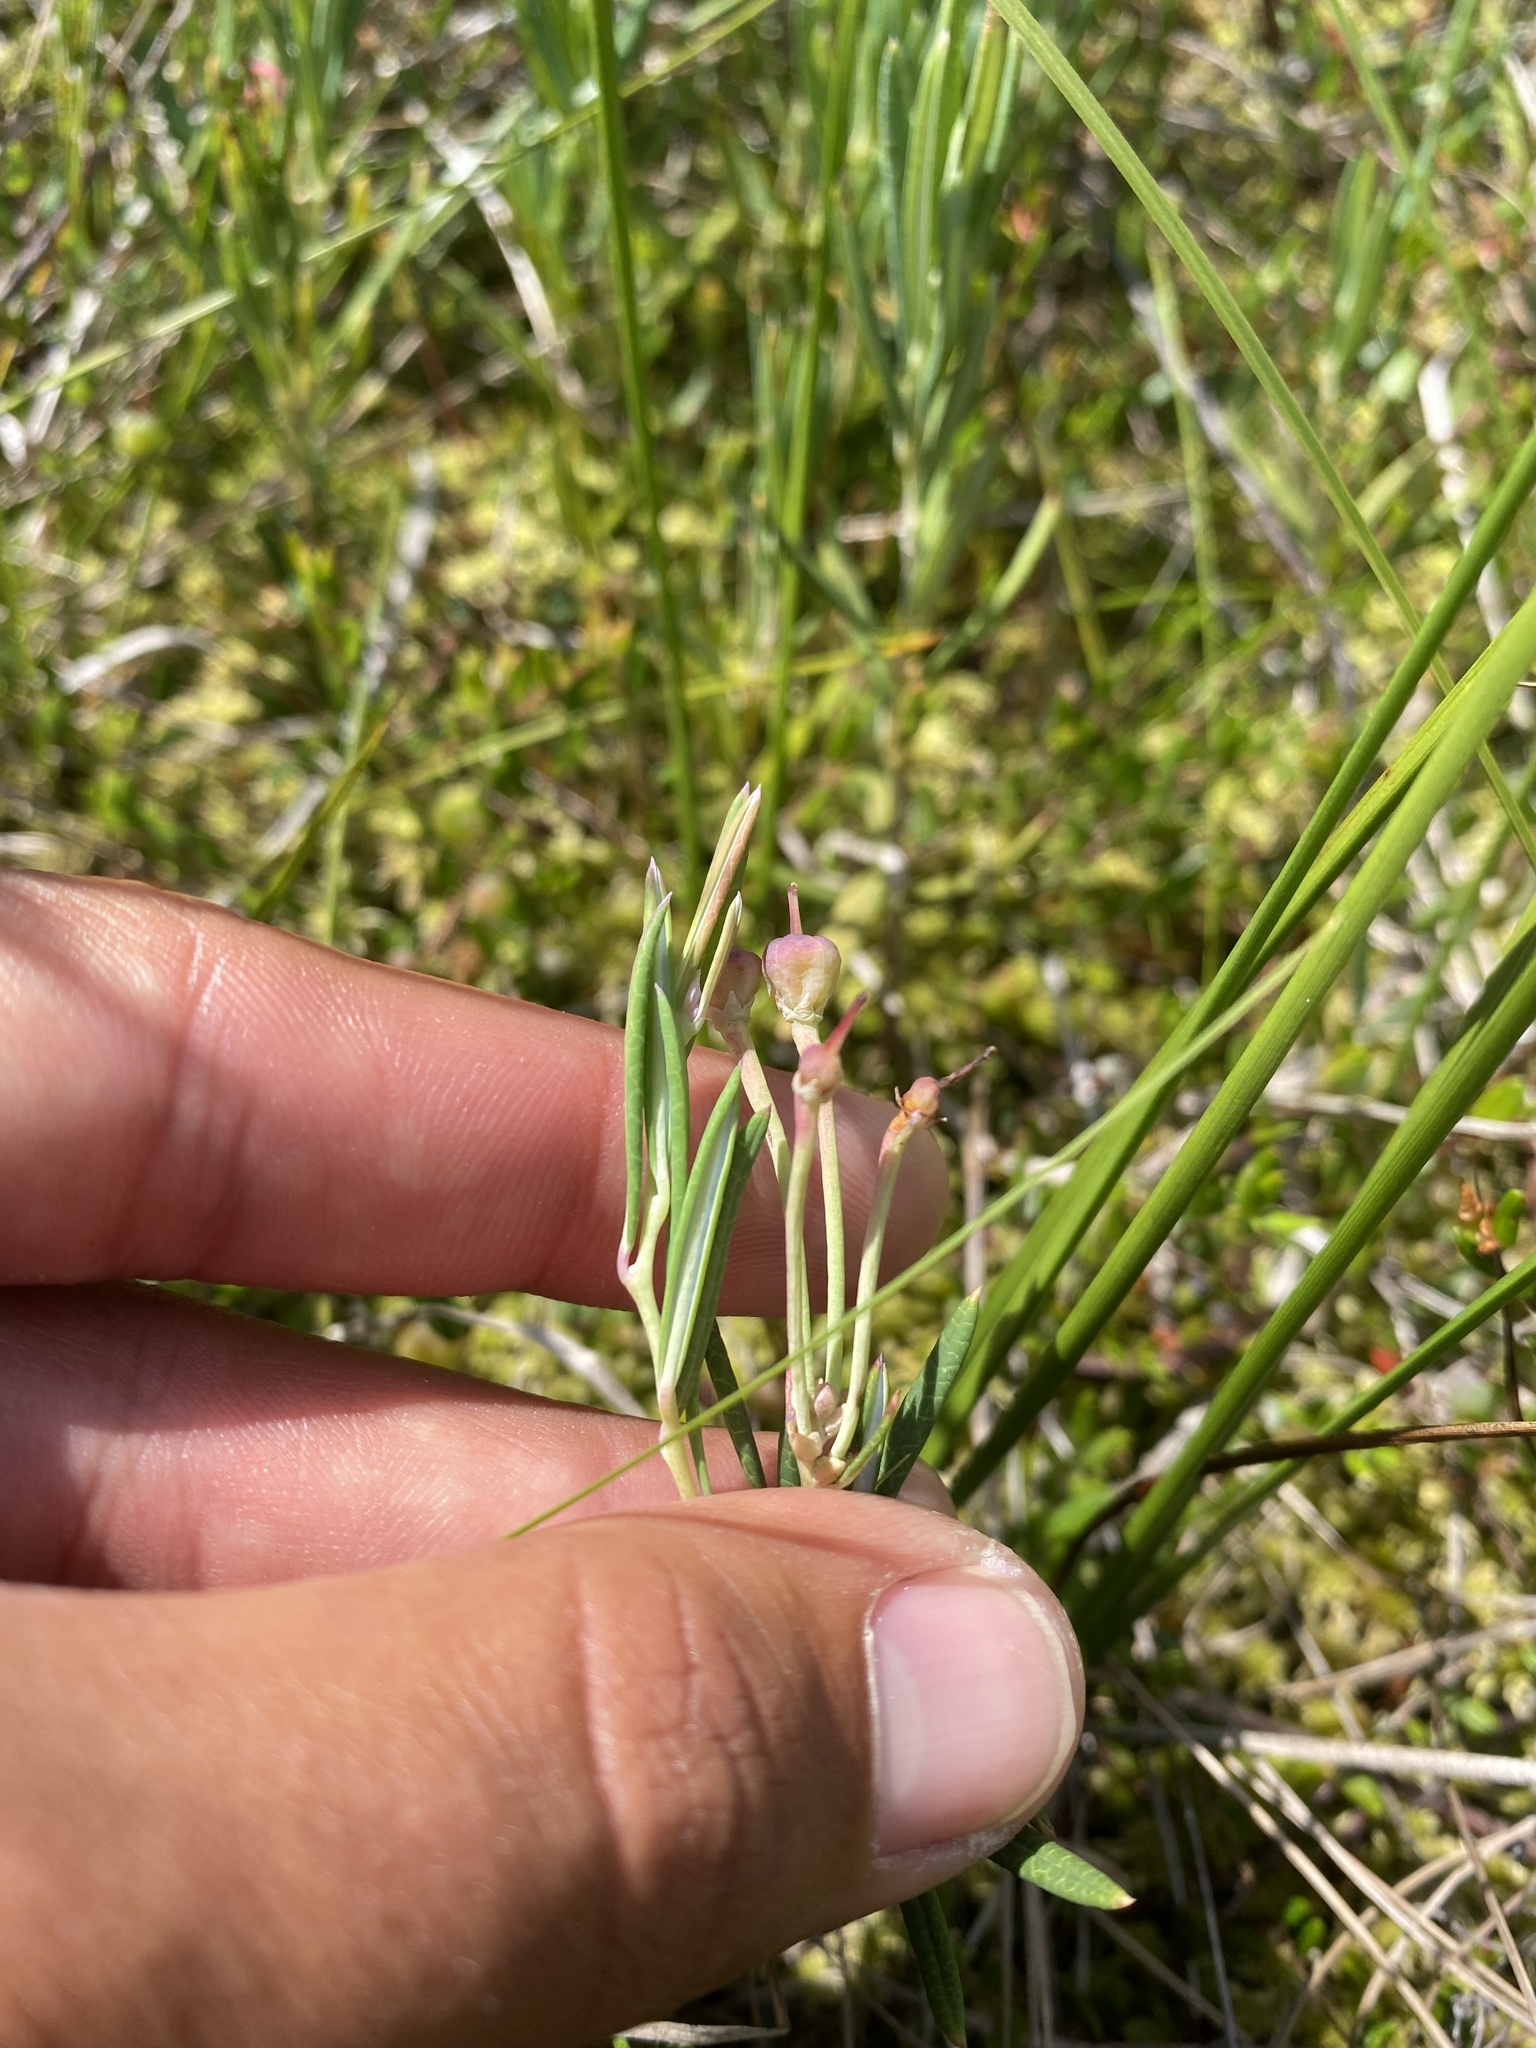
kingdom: Plantae
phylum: Tracheophyta
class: Magnoliopsida
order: Ericales
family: Ericaceae
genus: Andromeda
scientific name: Andromeda polifolia
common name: Bog-rosemary
